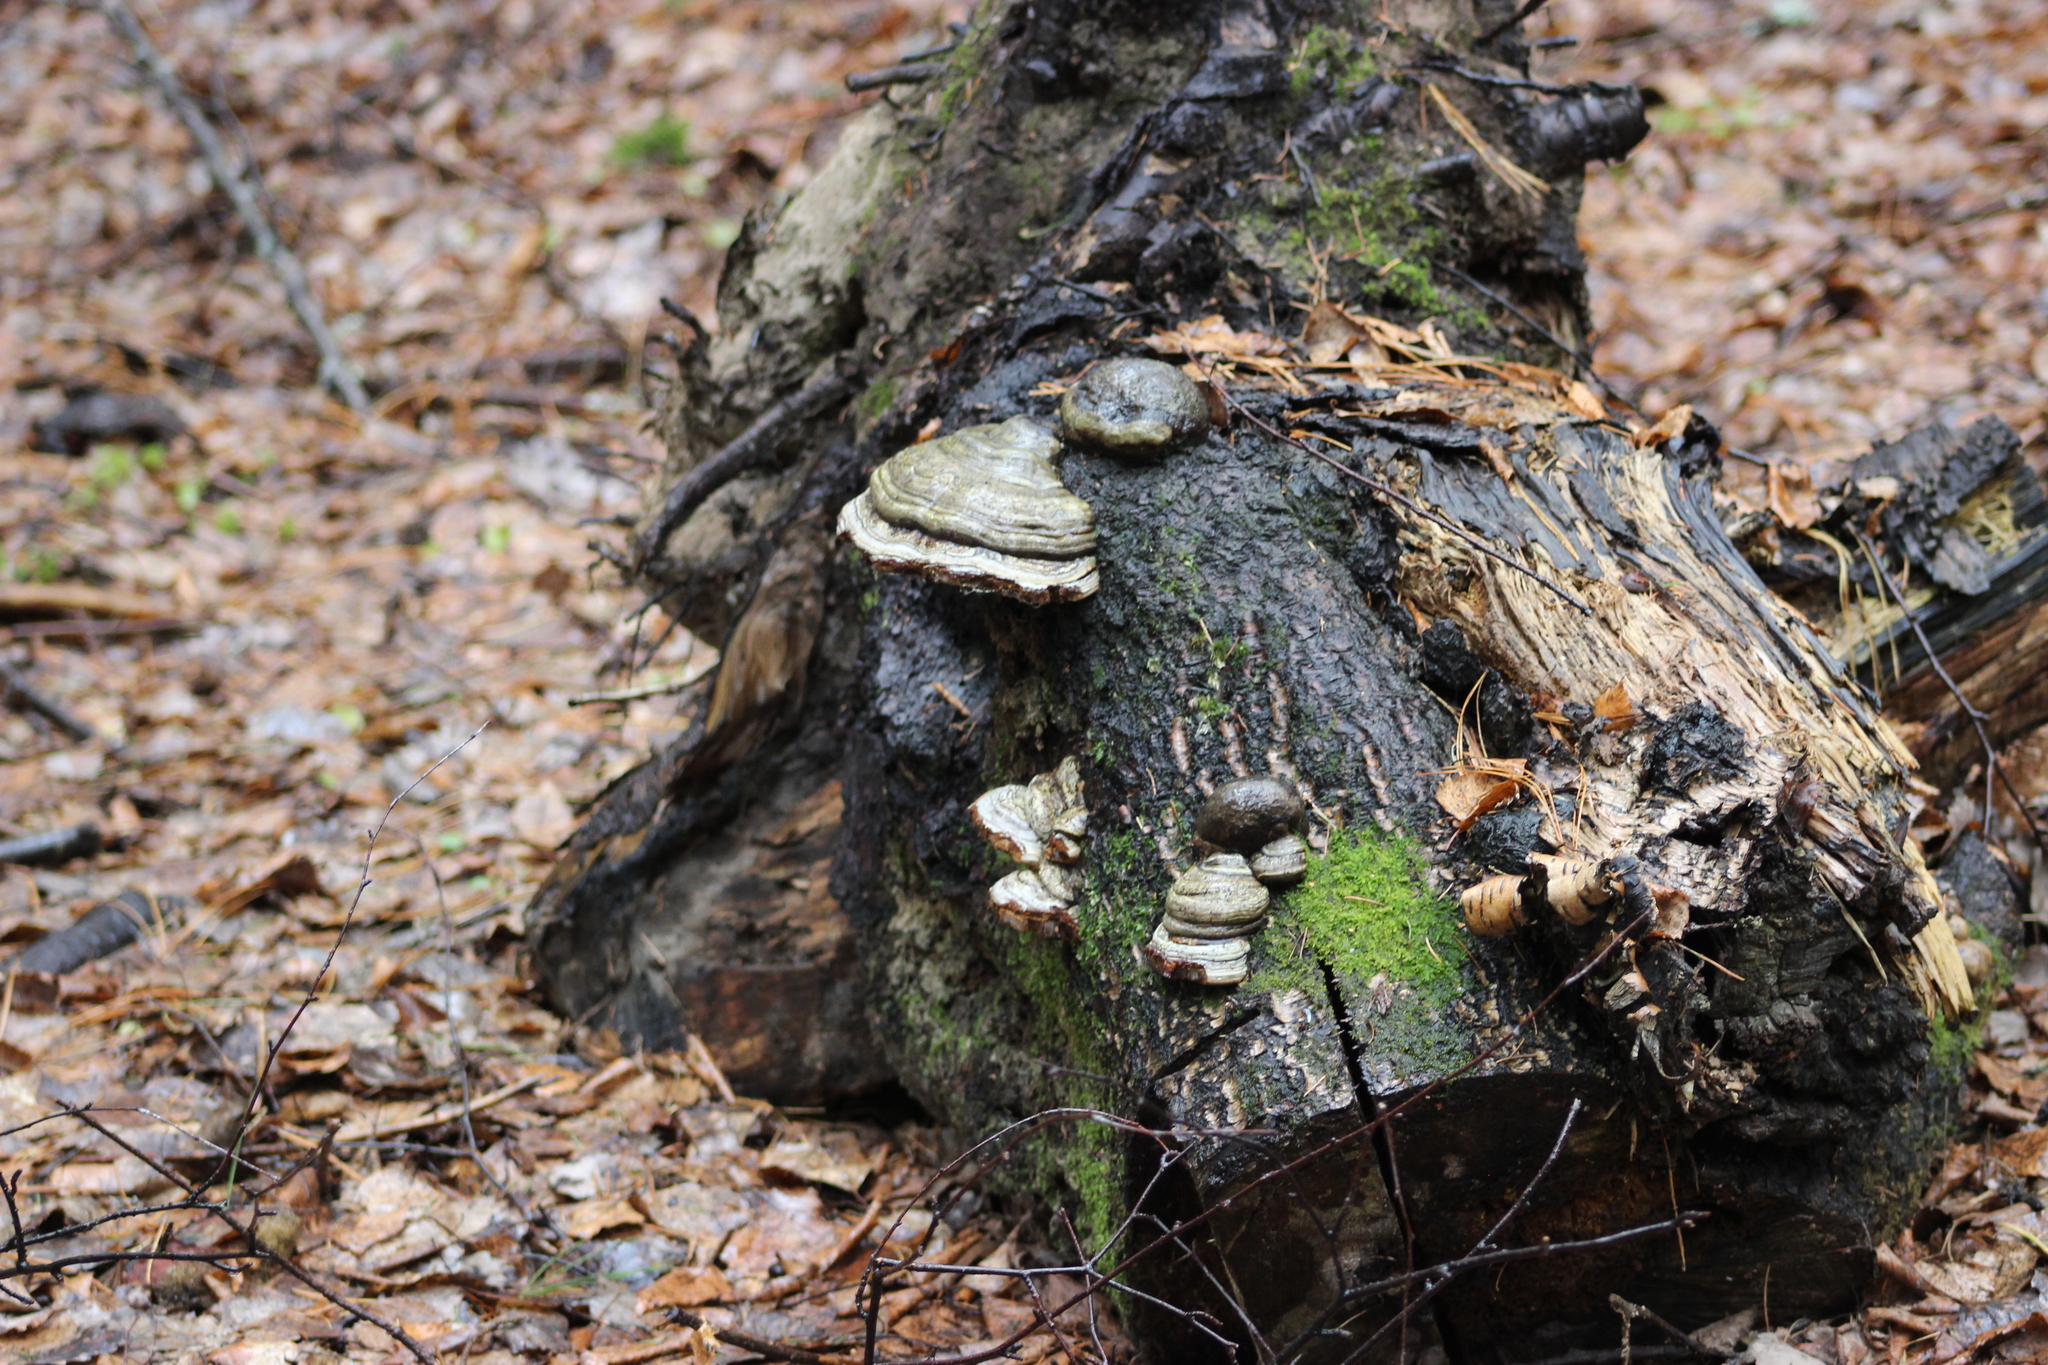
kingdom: Fungi
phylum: Basidiomycota
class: Agaricomycetes
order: Polyporales
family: Polyporaceae
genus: Fomes
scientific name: Fomes fomentarius
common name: Hoof fungus
